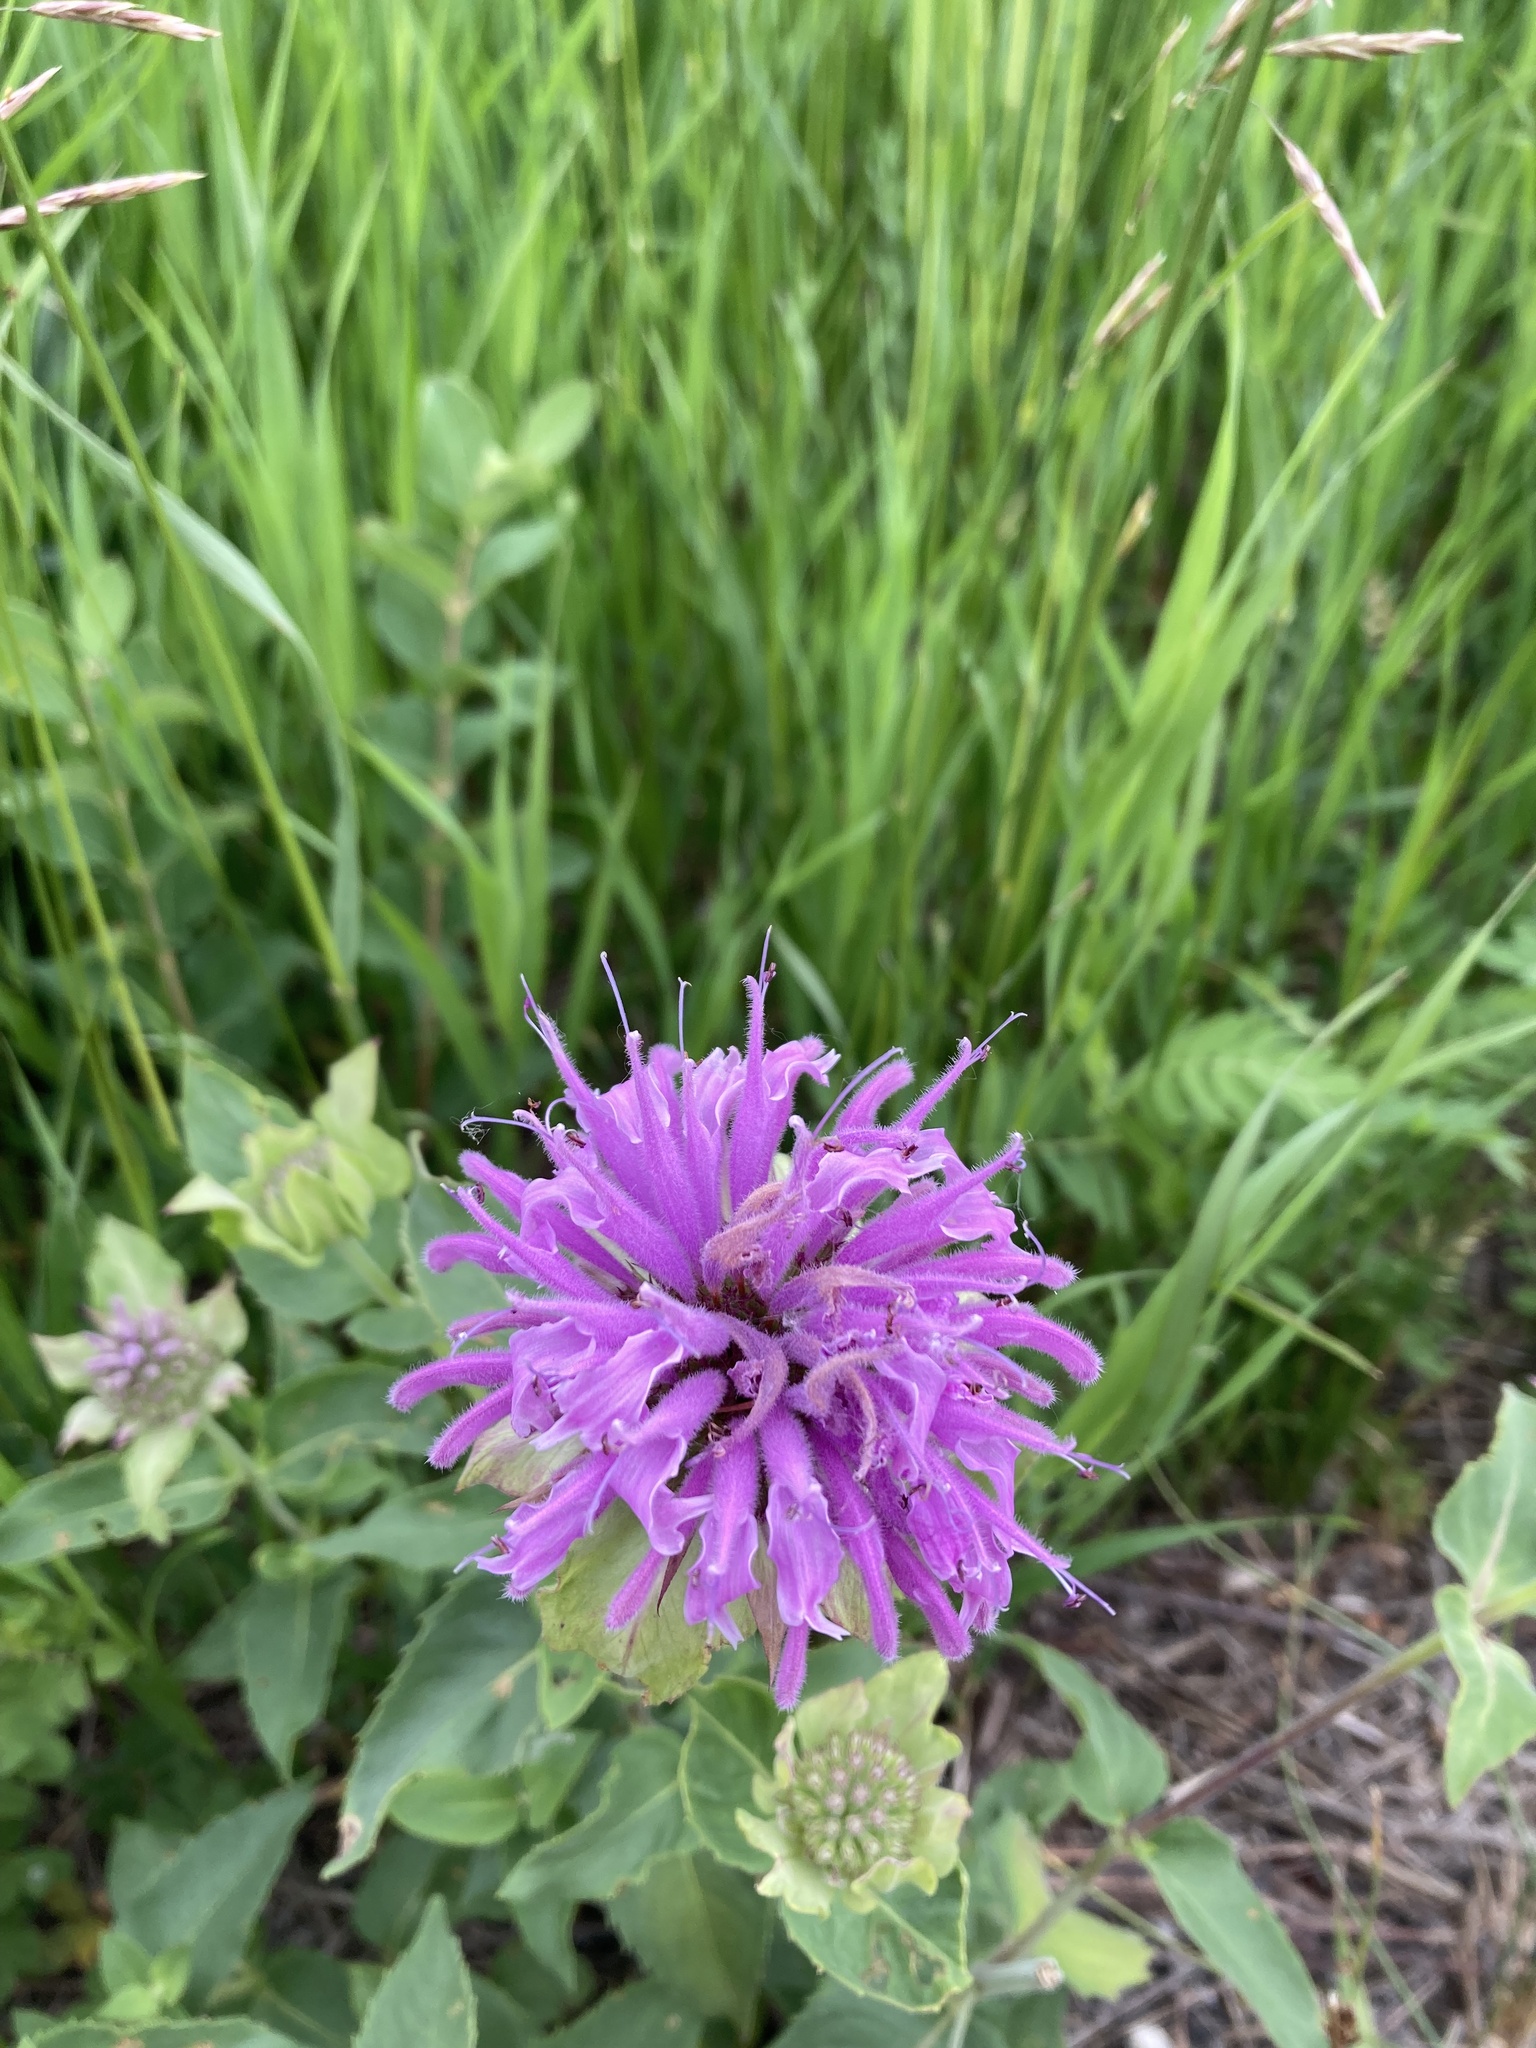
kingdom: Plantae
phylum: Tracheophyta
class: Magnoliopsida
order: Lamiales
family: Lamiaceae
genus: Monarda
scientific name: Monarda fistulosa
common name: Purple beebalm
